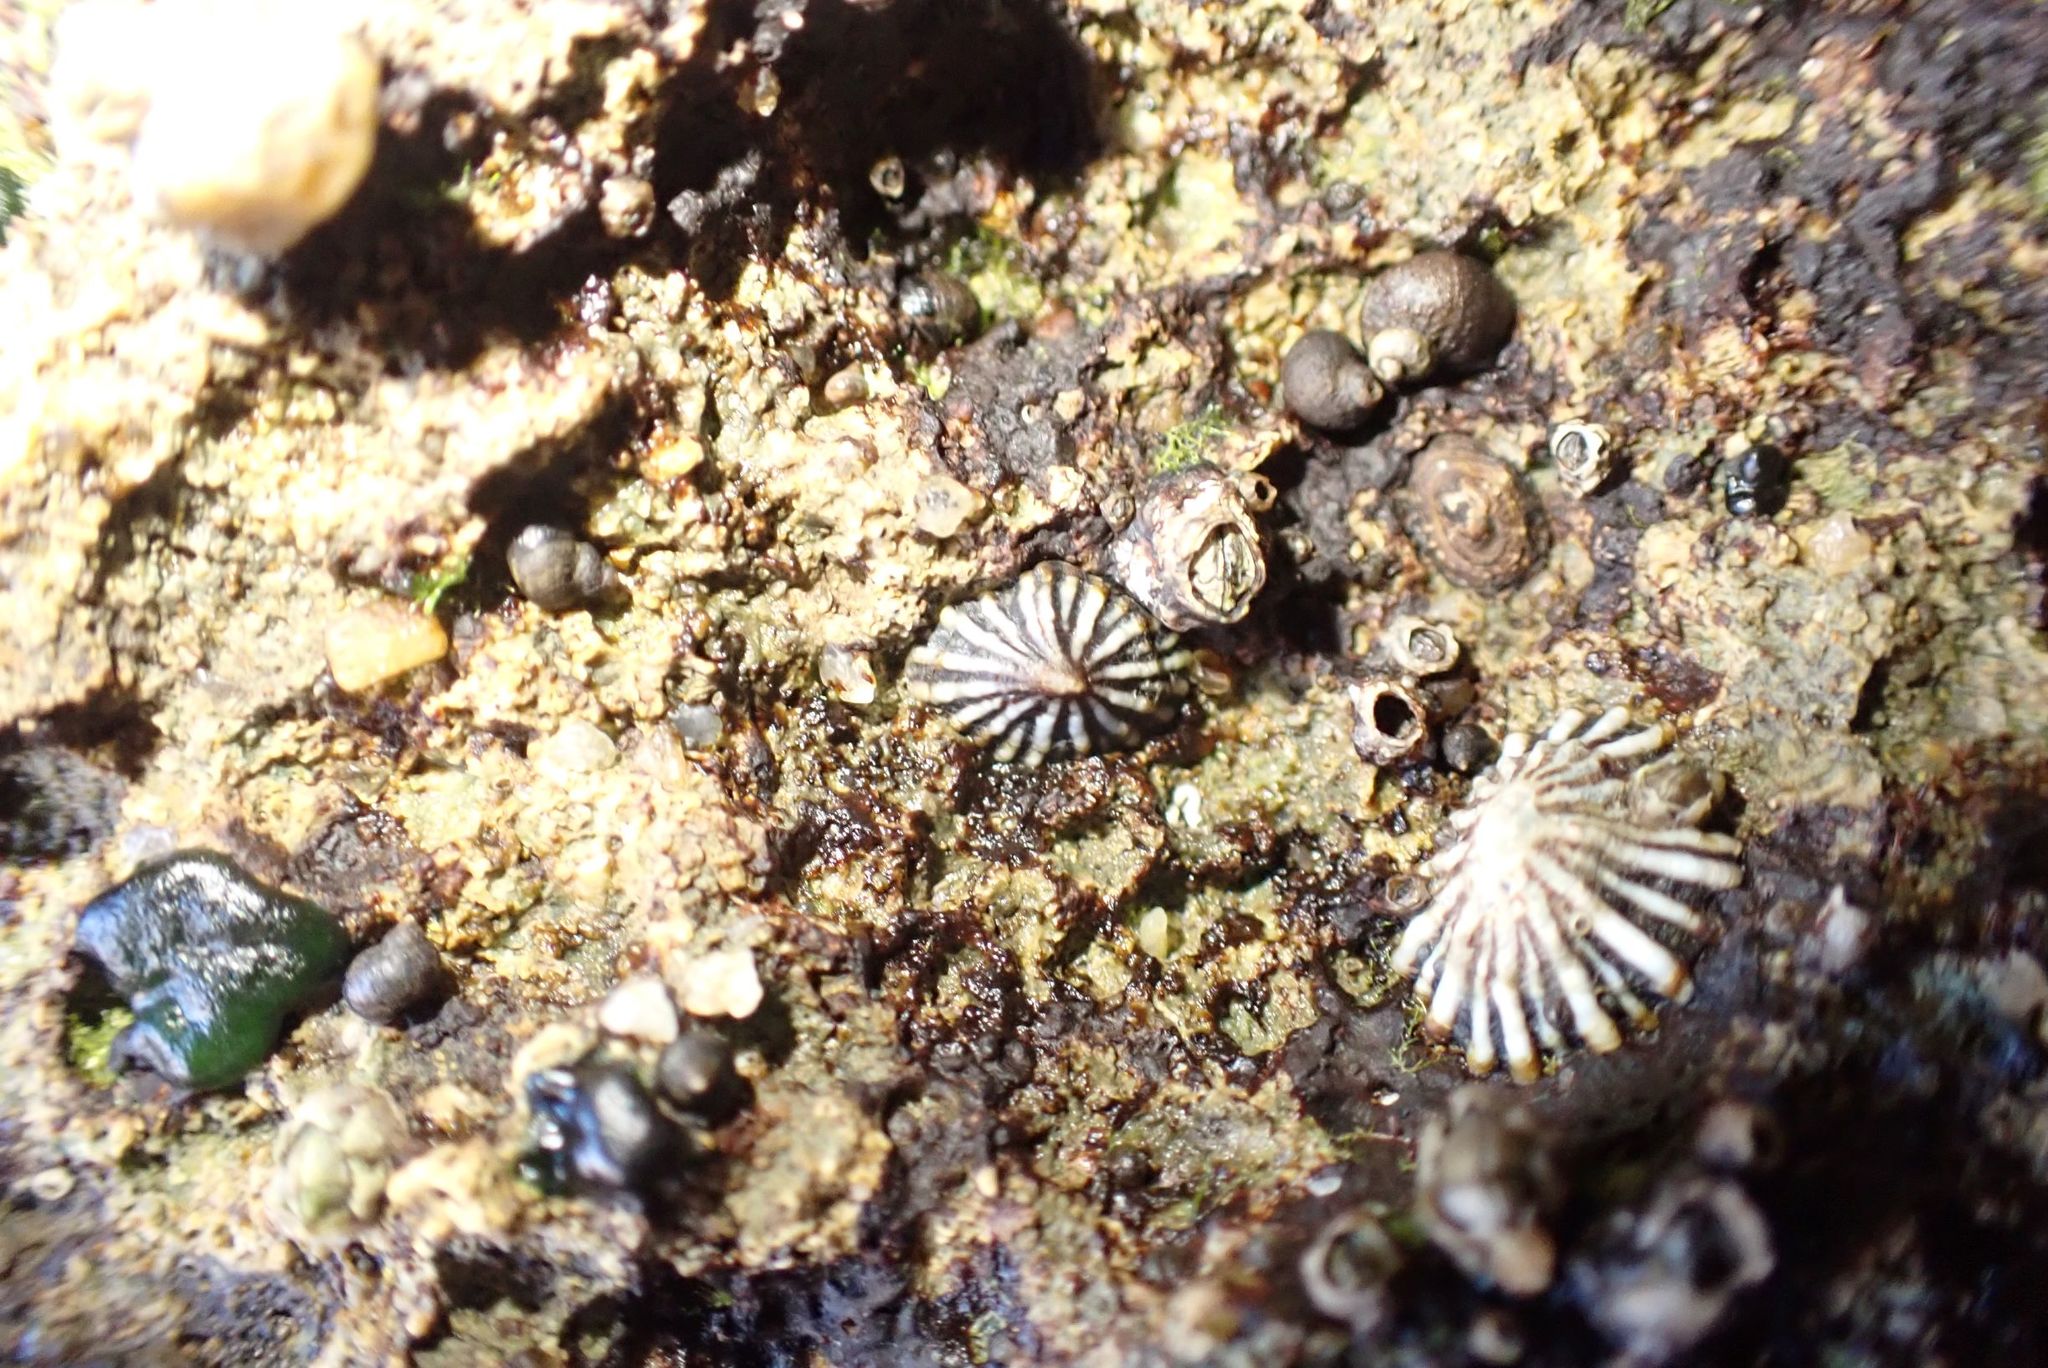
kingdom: Animalia
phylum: Mollusca
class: Gastropoda
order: Siphonariida
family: Siphonariidae
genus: Siphonaria
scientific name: Siphonaria diemenensis
